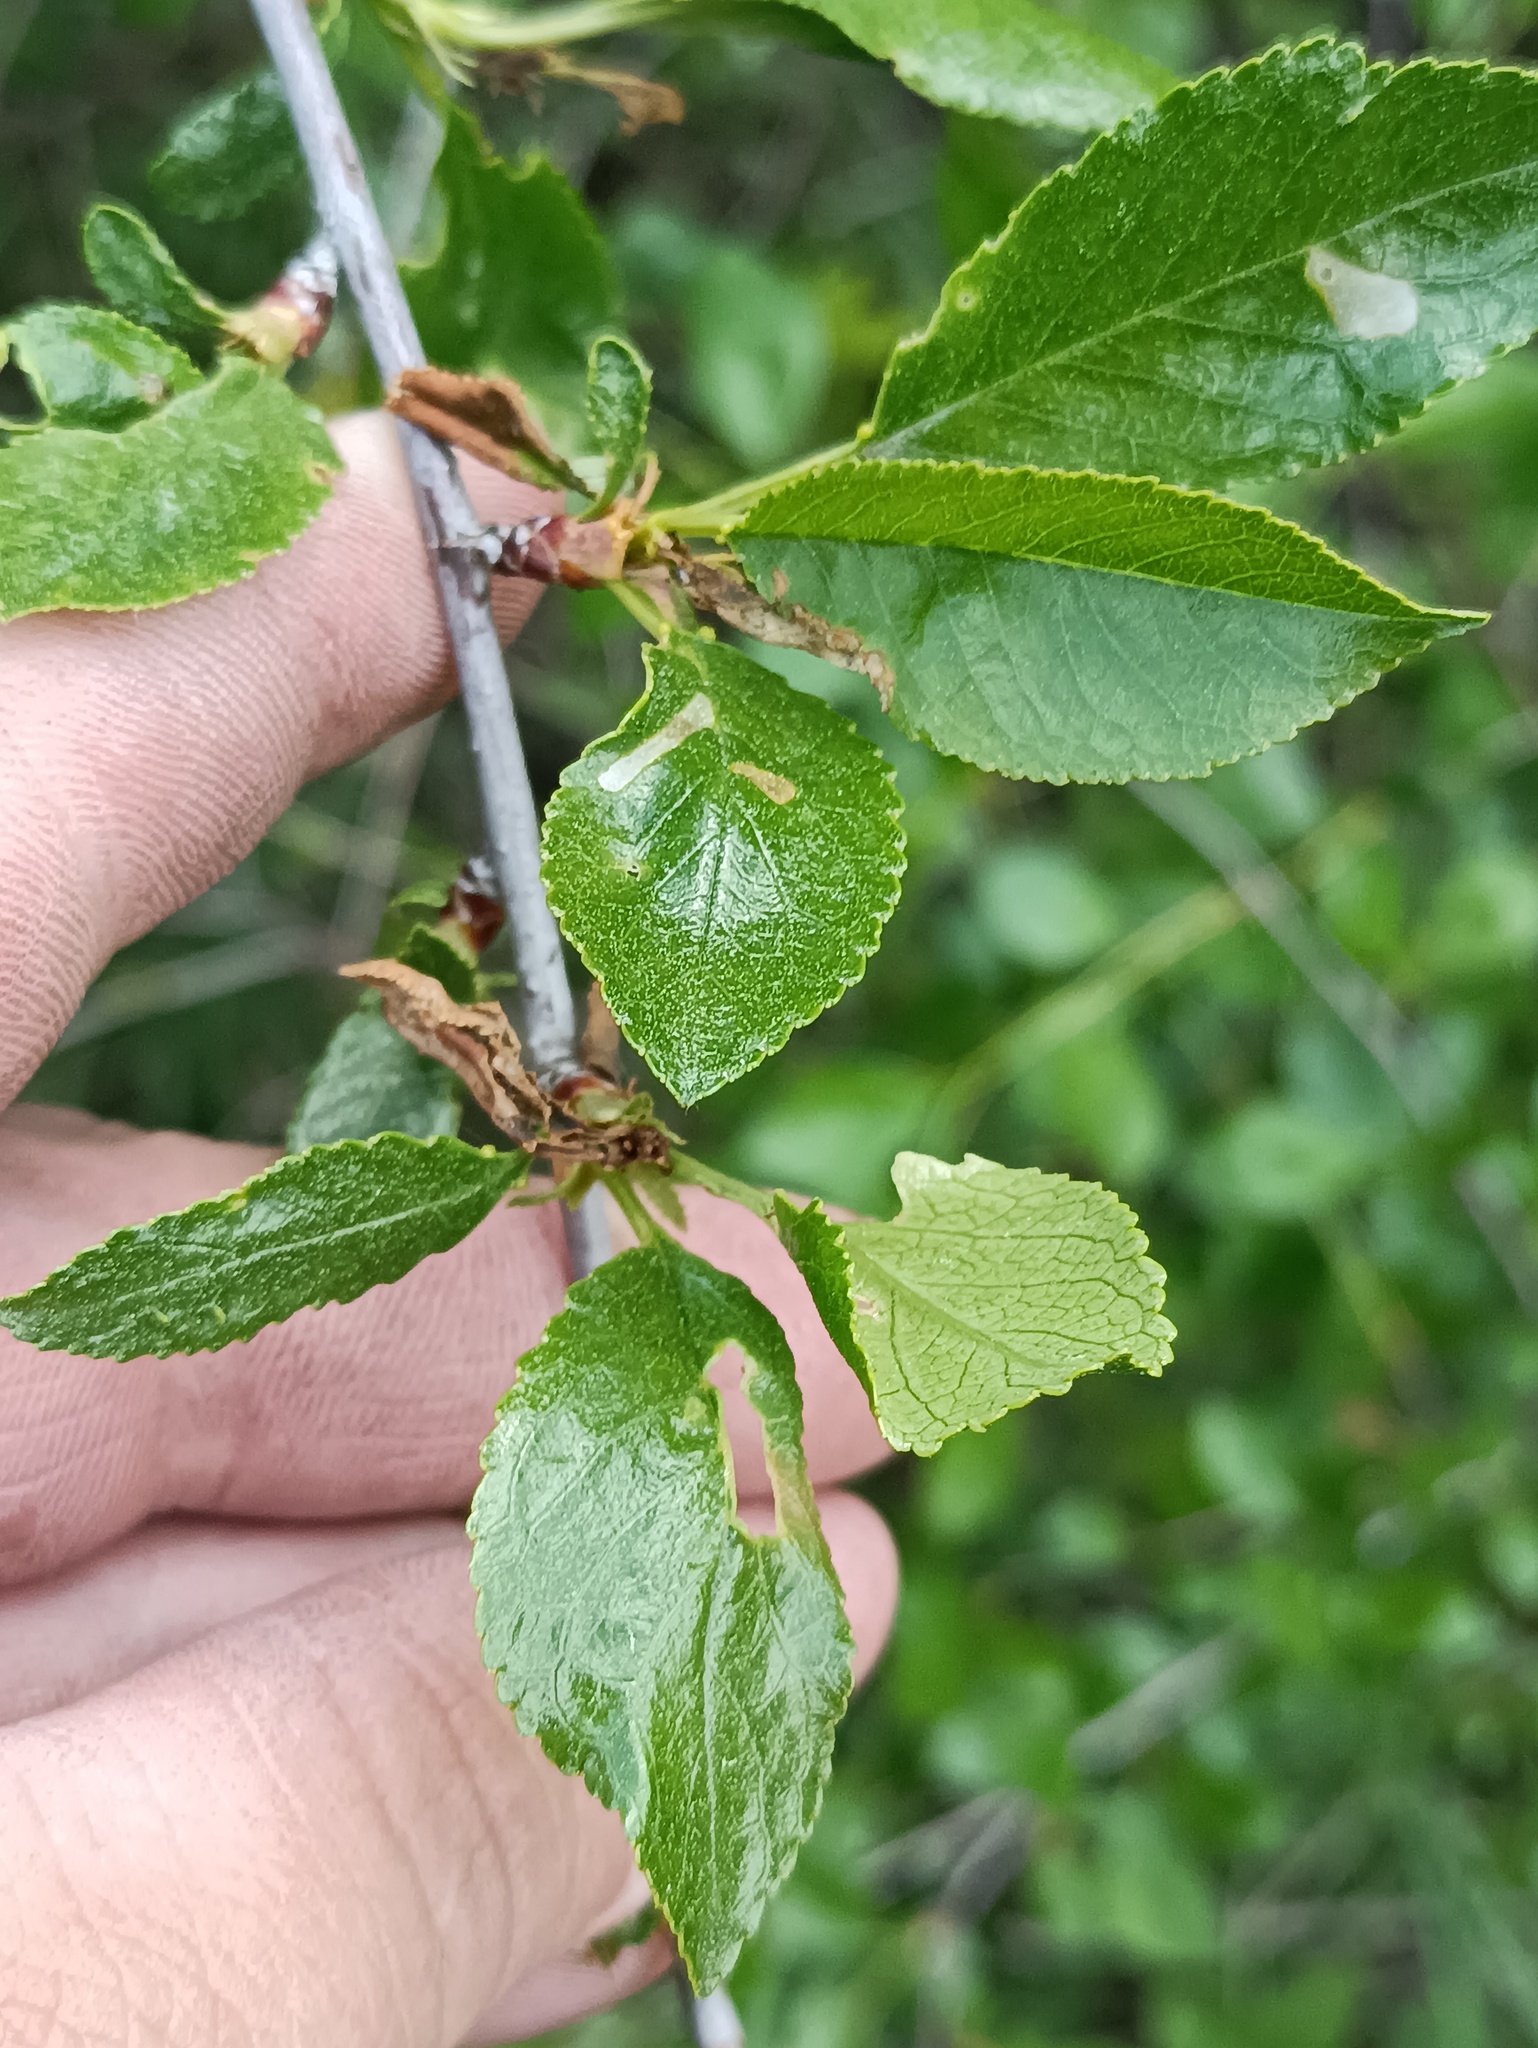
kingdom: Plantae
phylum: Tracheophyta
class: Magnoliopsida
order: Rosales
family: Rosaceae
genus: Prunus
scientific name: Prunus fruticosa
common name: European dwarf cherry
